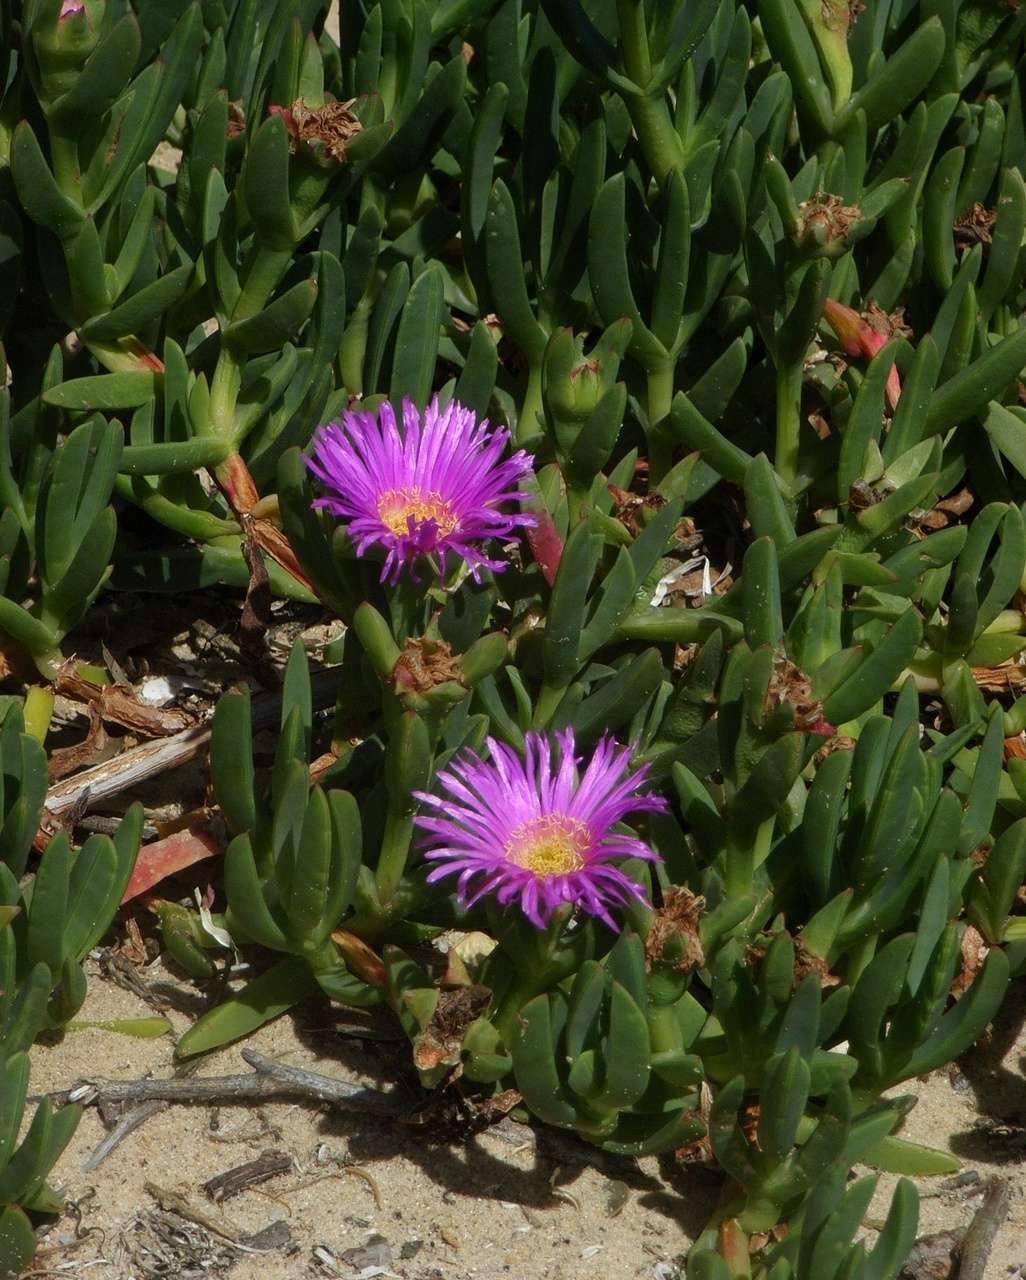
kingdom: Plantae
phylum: Tracheophyta
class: Magnoliopsida
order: Caryophyllales
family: Aizoaceae
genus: Carpobrotus
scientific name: Carpobrotus rossii
